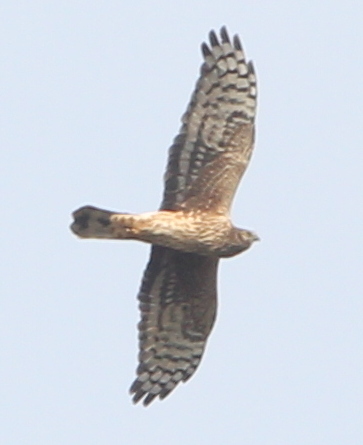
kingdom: Animalia
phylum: Chordata
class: Aves
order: Accipitriformes
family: Accipitridae
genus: Circus
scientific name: Circus cyaneus
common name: Hen harrier
